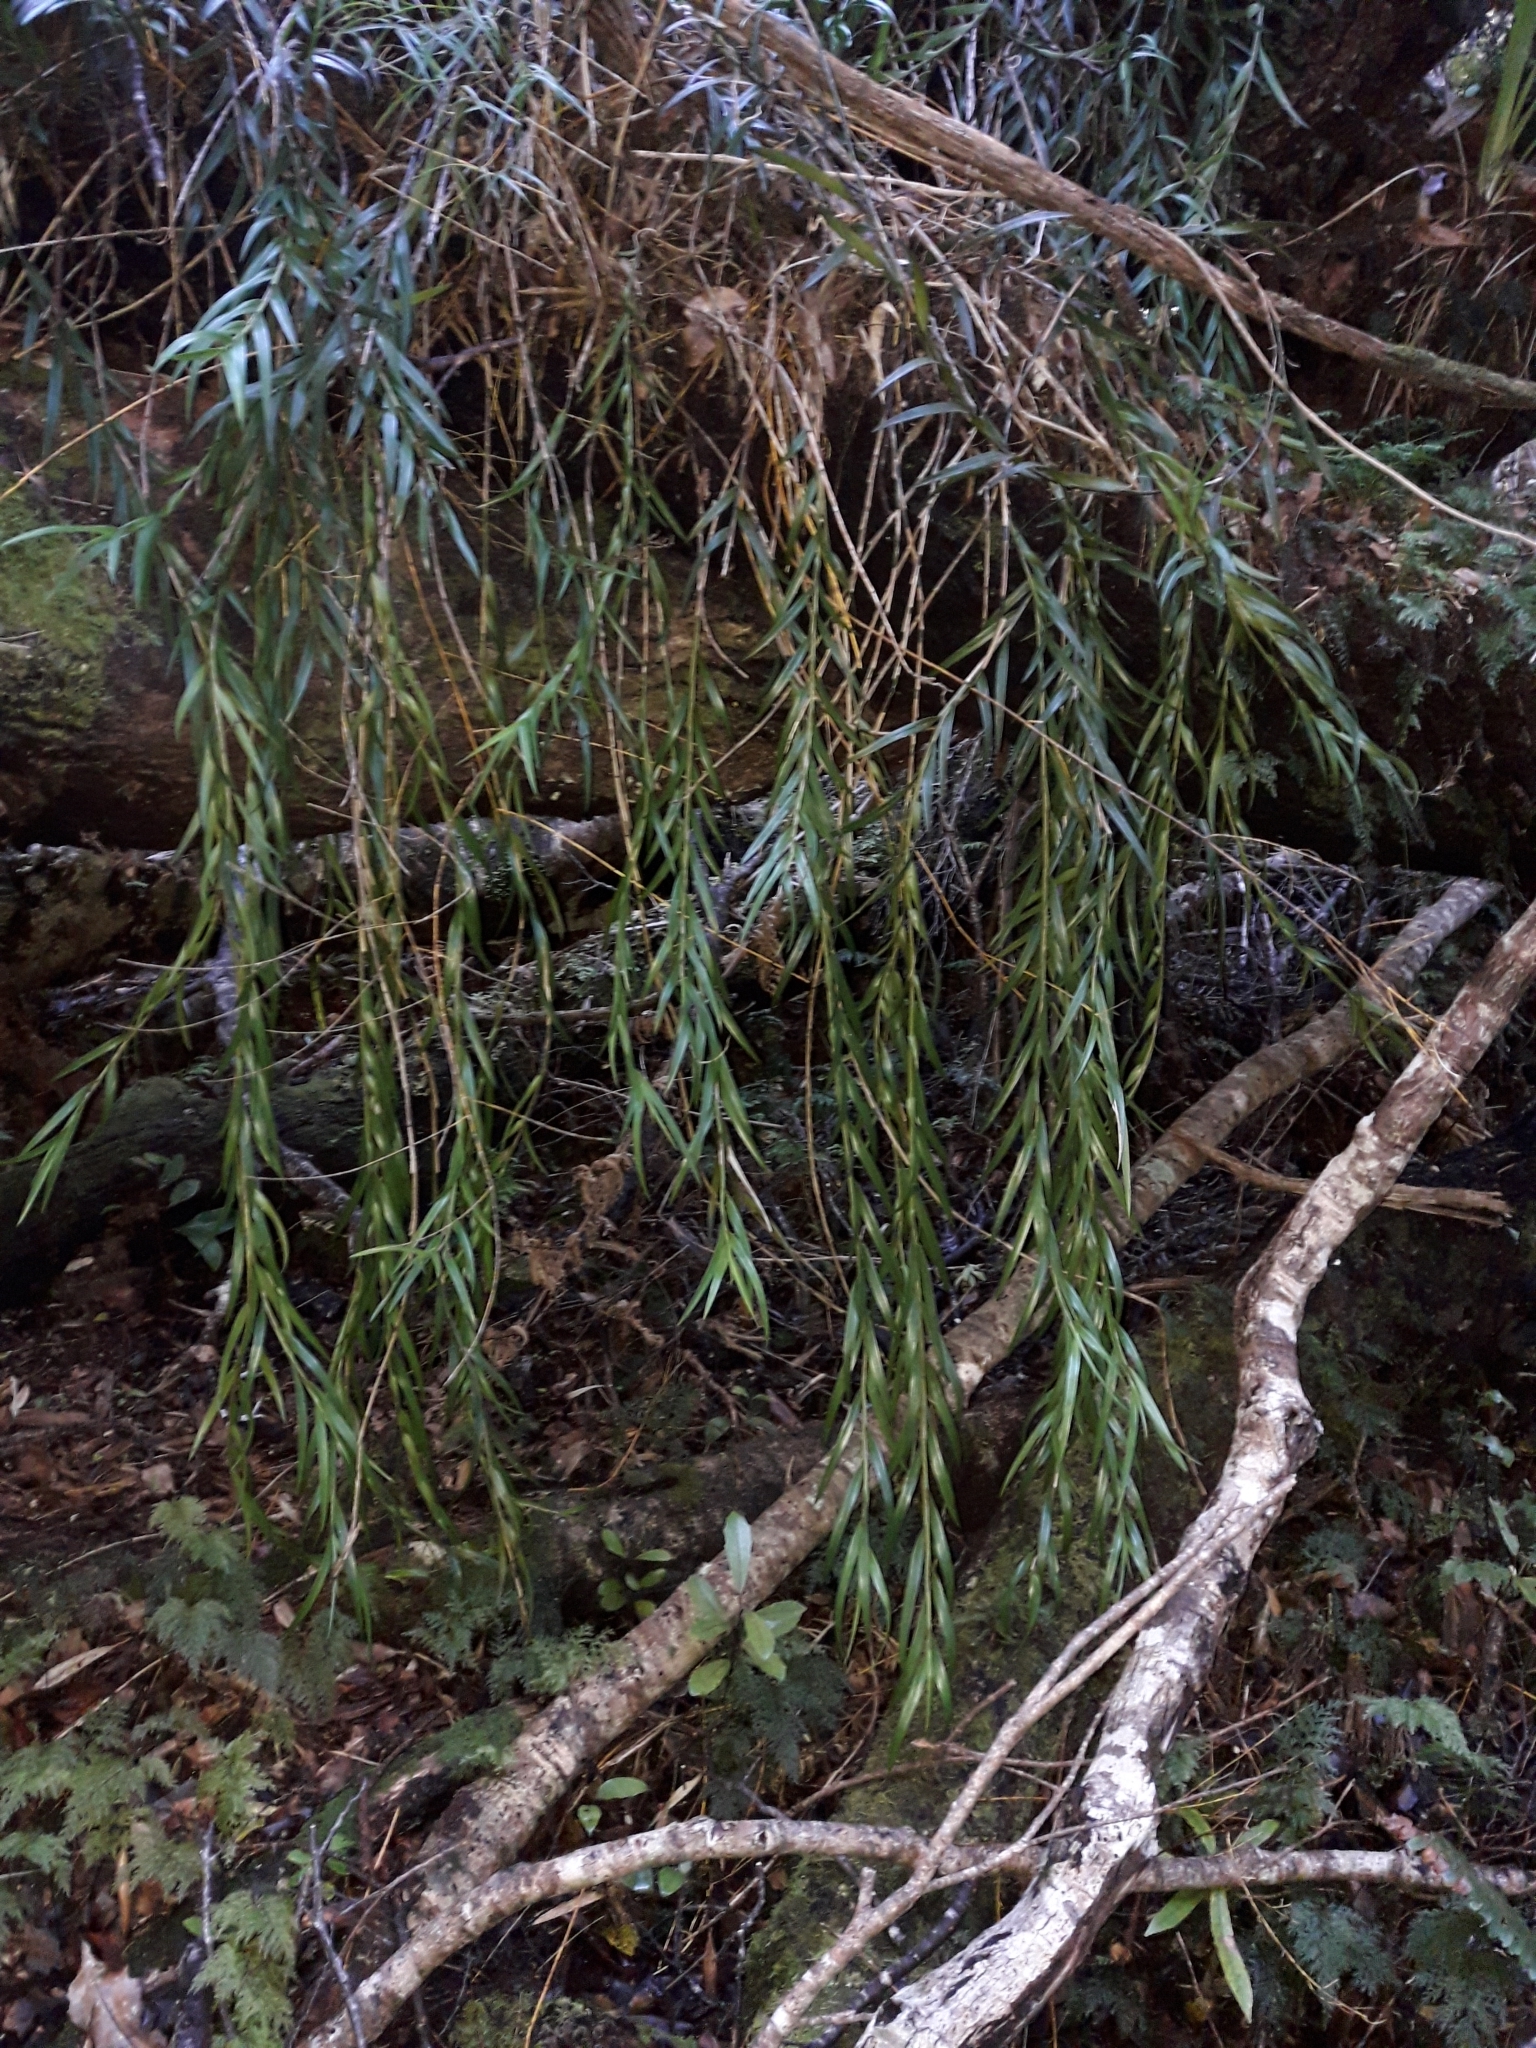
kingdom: Plantae
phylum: Tracheophyta
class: Liliopsida
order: Asparagales
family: Orchidaceae
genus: Earina
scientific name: Earina autumnalis
